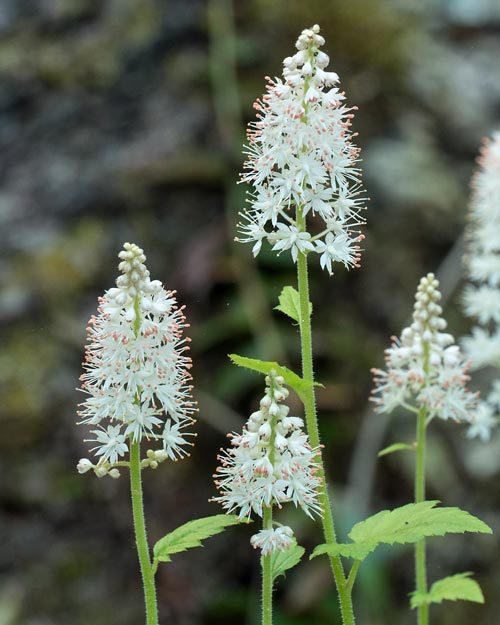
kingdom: Plantae
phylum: Tracheophyta
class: Magnoliopsida
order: Saxifragales
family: Saxifragaceae
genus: Tiarella
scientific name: Tiarella austrina
